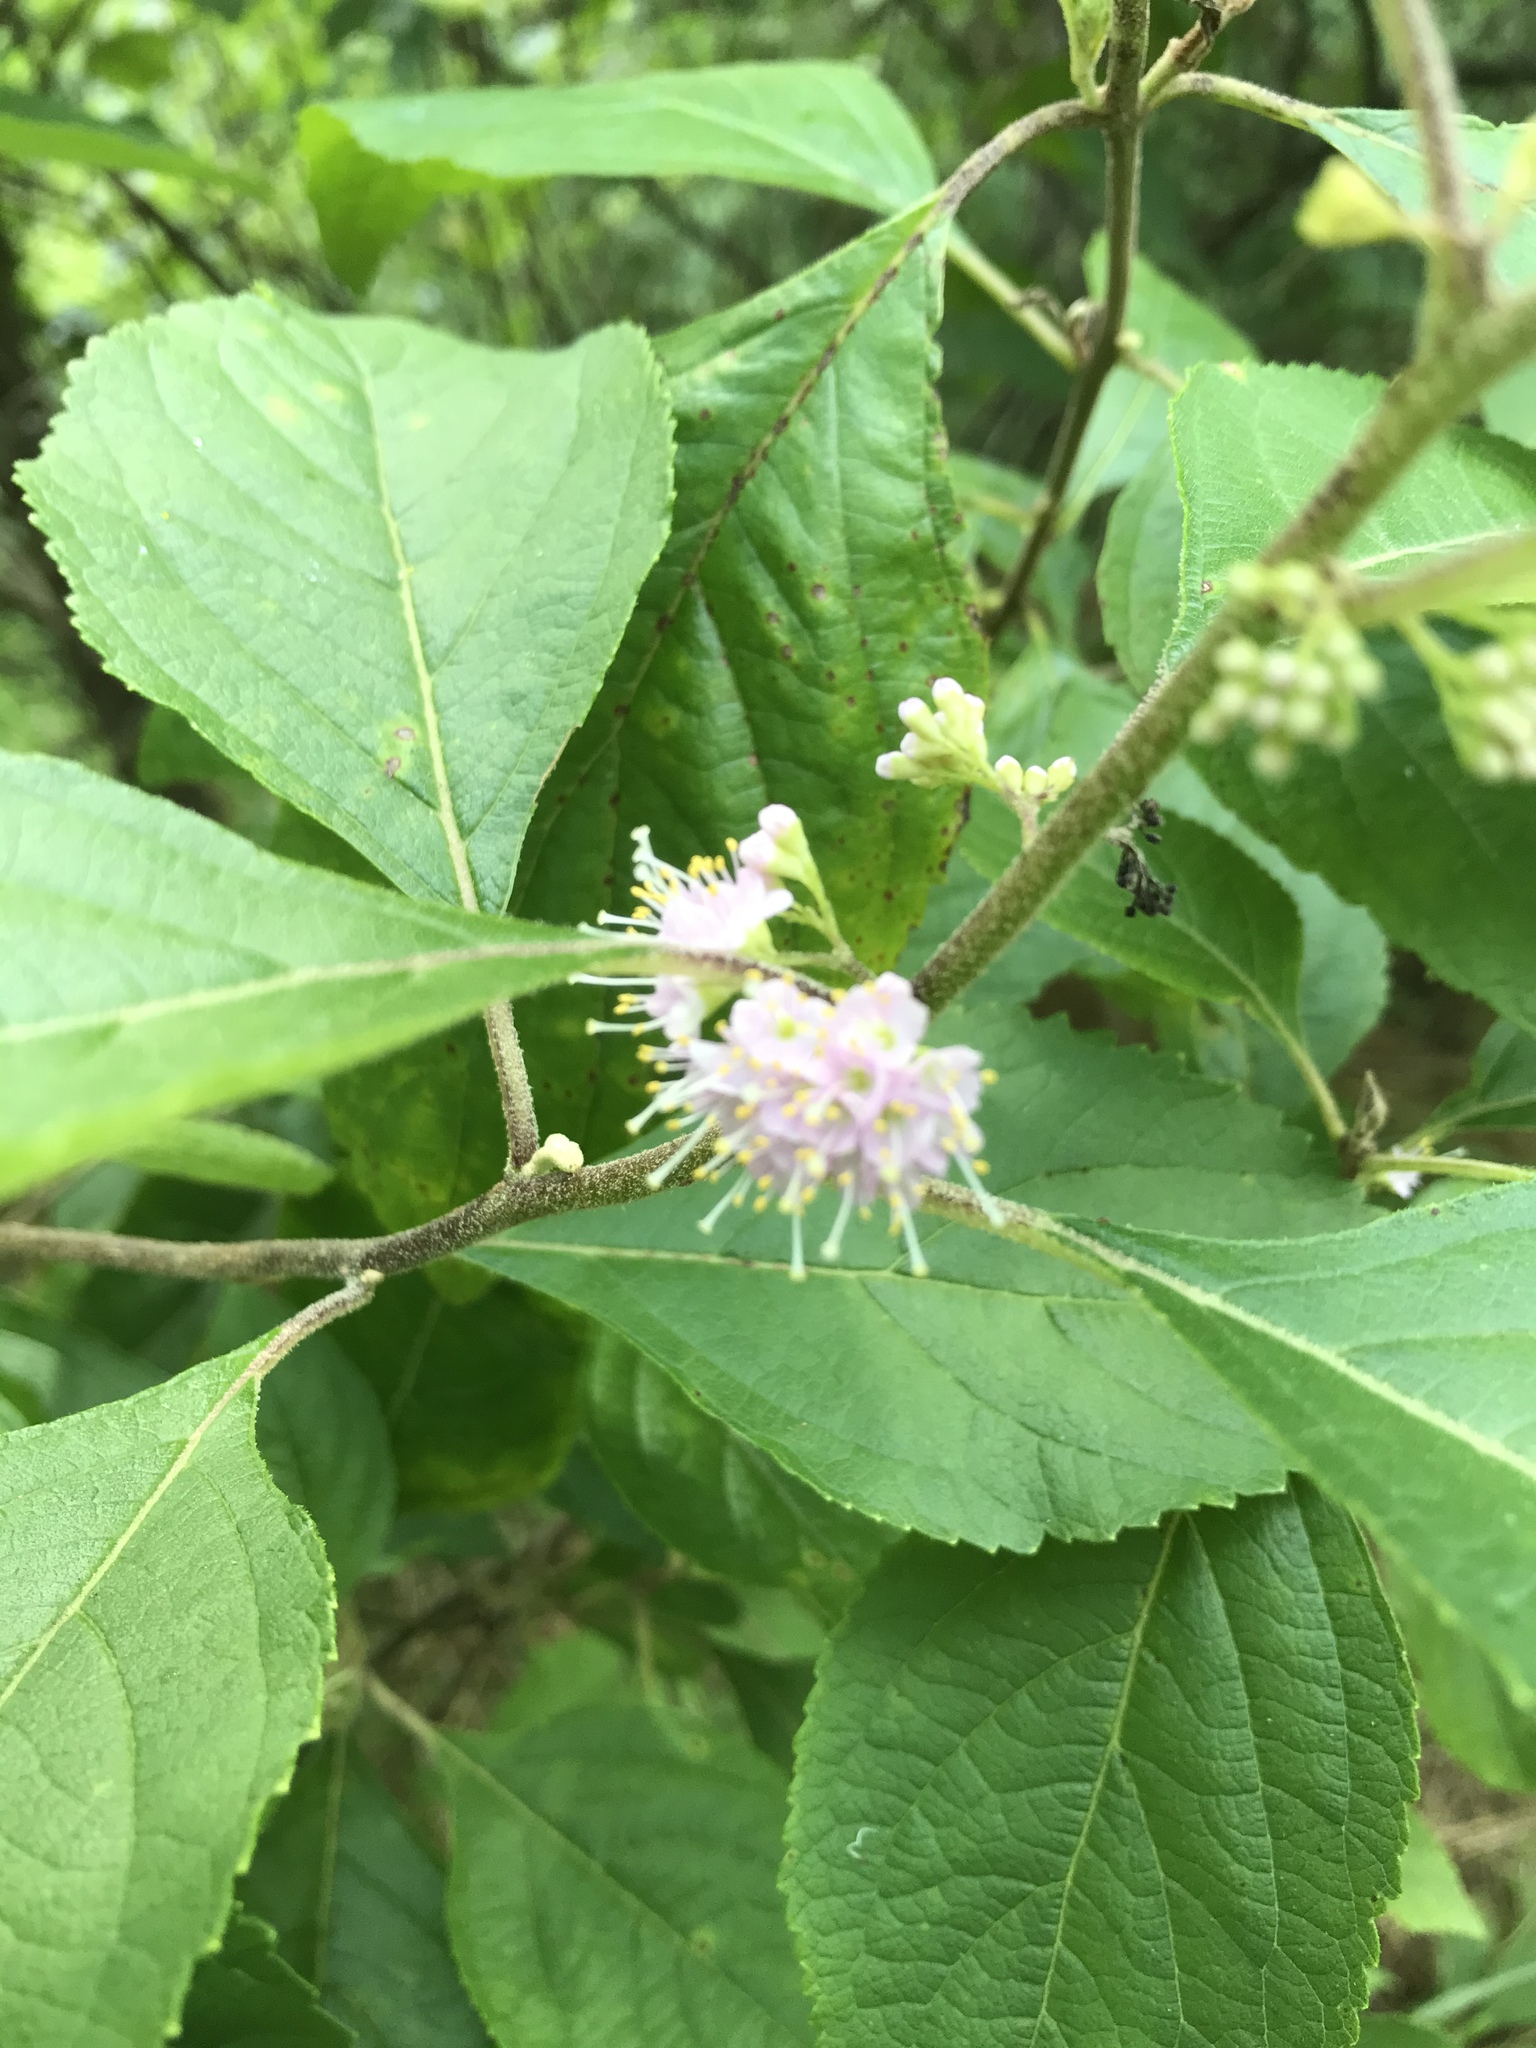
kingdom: Plantae
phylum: Tracheophyta
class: Magnoliopsida
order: Lamiales
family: Lamiaceae
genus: Callicarpa
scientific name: Callicarpa americana
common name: American beautyberry
